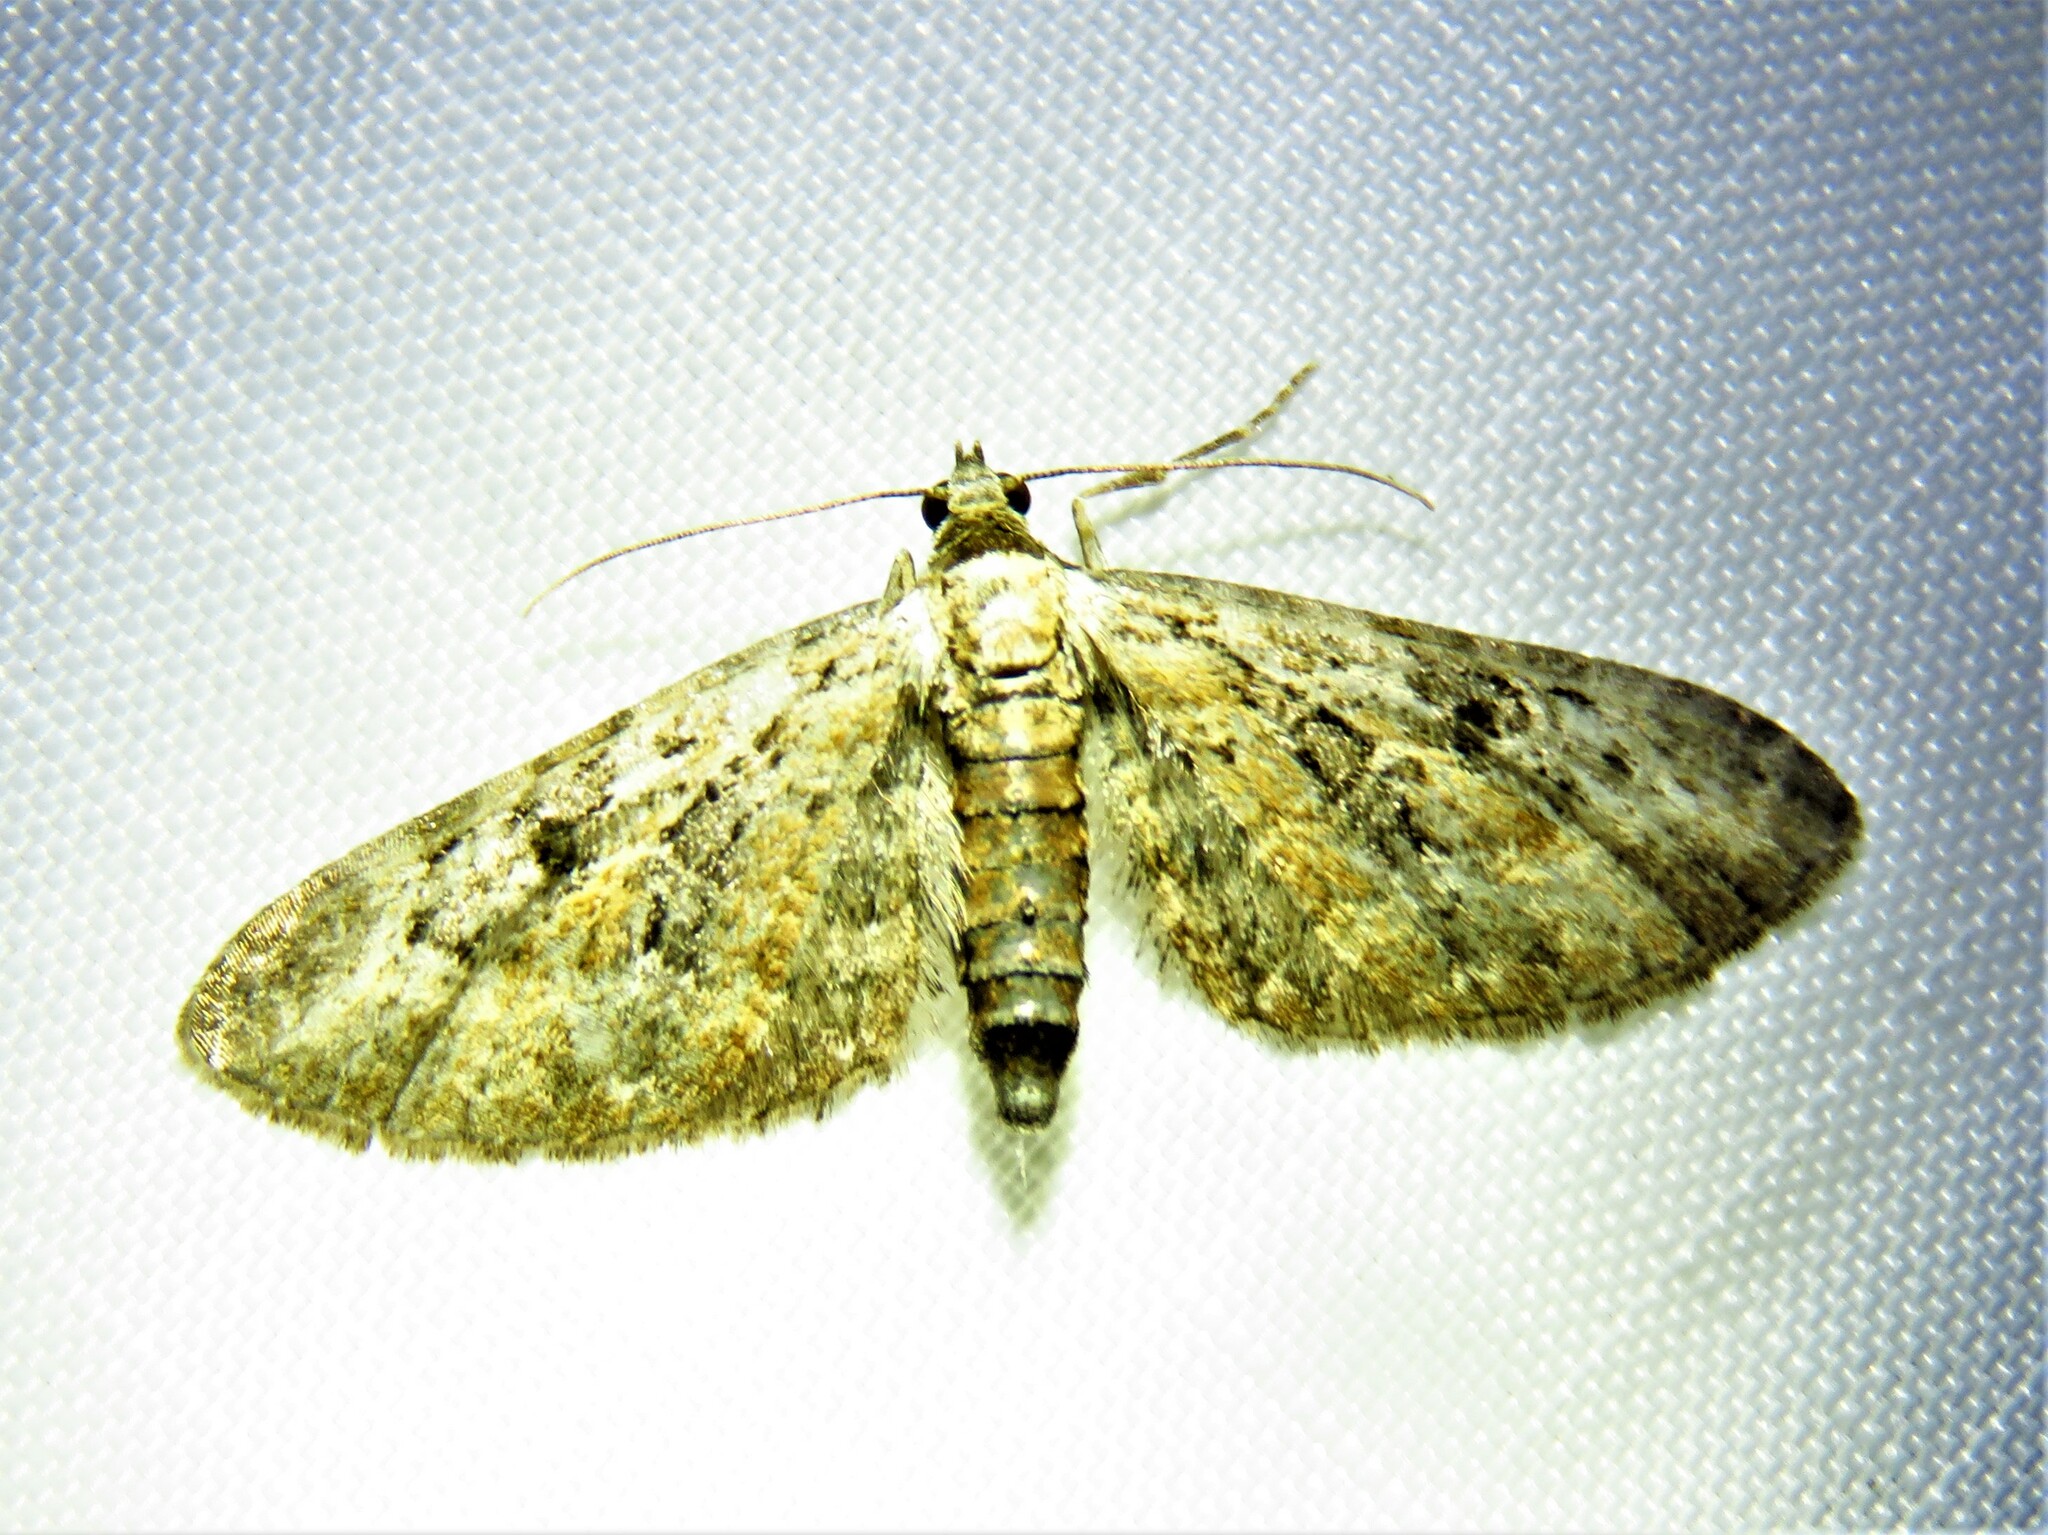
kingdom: Animalia
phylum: Arthropoda
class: Insecta
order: Lepidoptera
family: Geometridae
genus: Eupithecia
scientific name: Eupithecia icterata
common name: Tawny speckled pug
